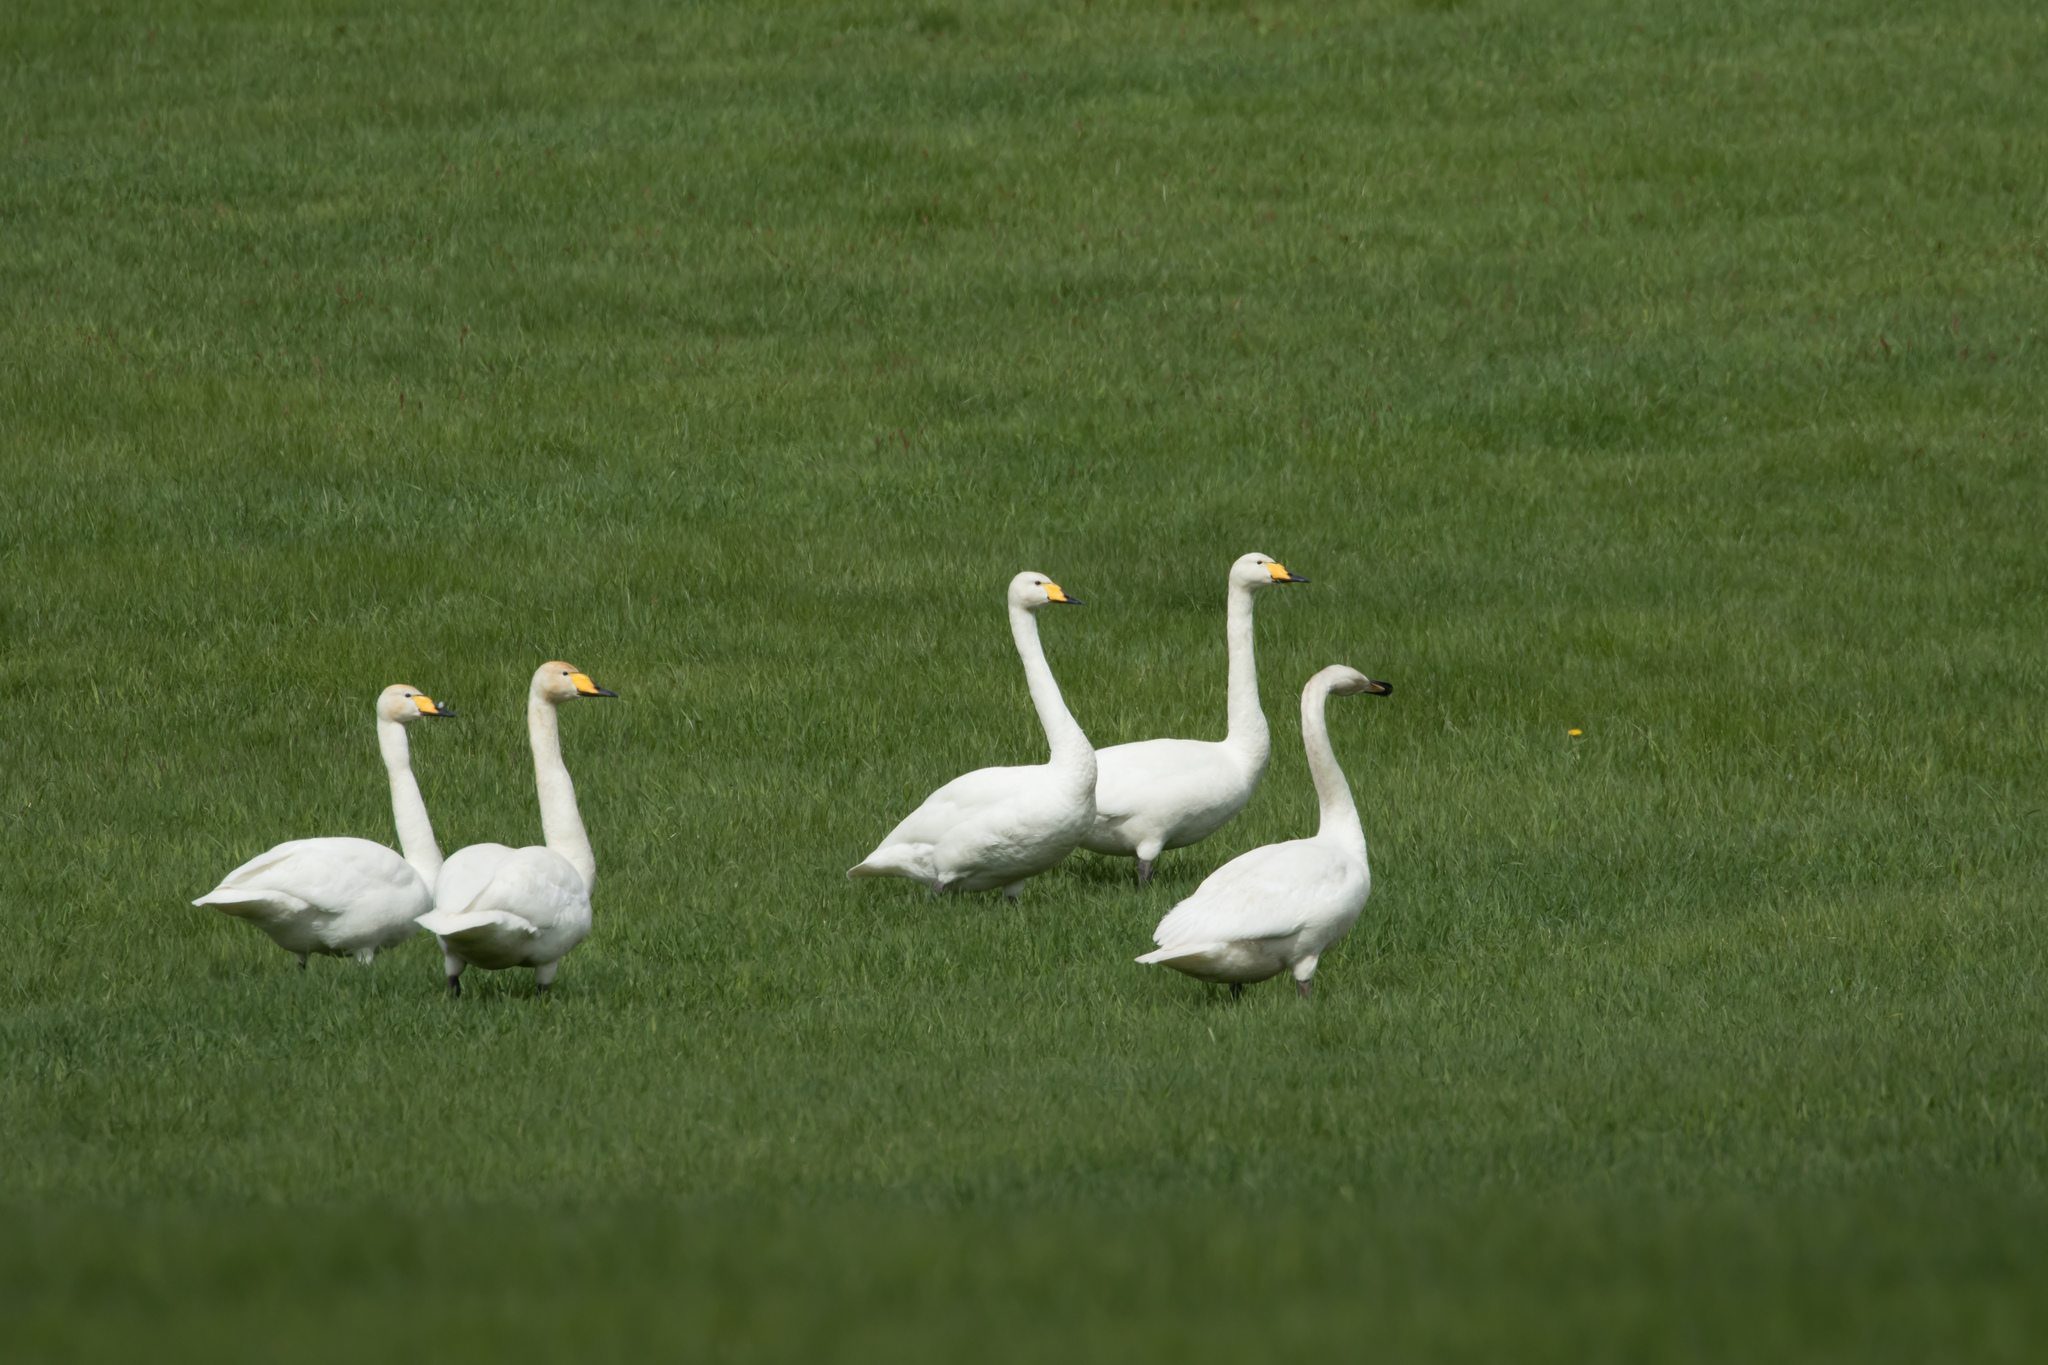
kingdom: Animalia
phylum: Chordata
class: Aves
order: Anseriformes
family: Anatidae
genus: Cygnus
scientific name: Cygnus cygnus
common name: Whooper swan
